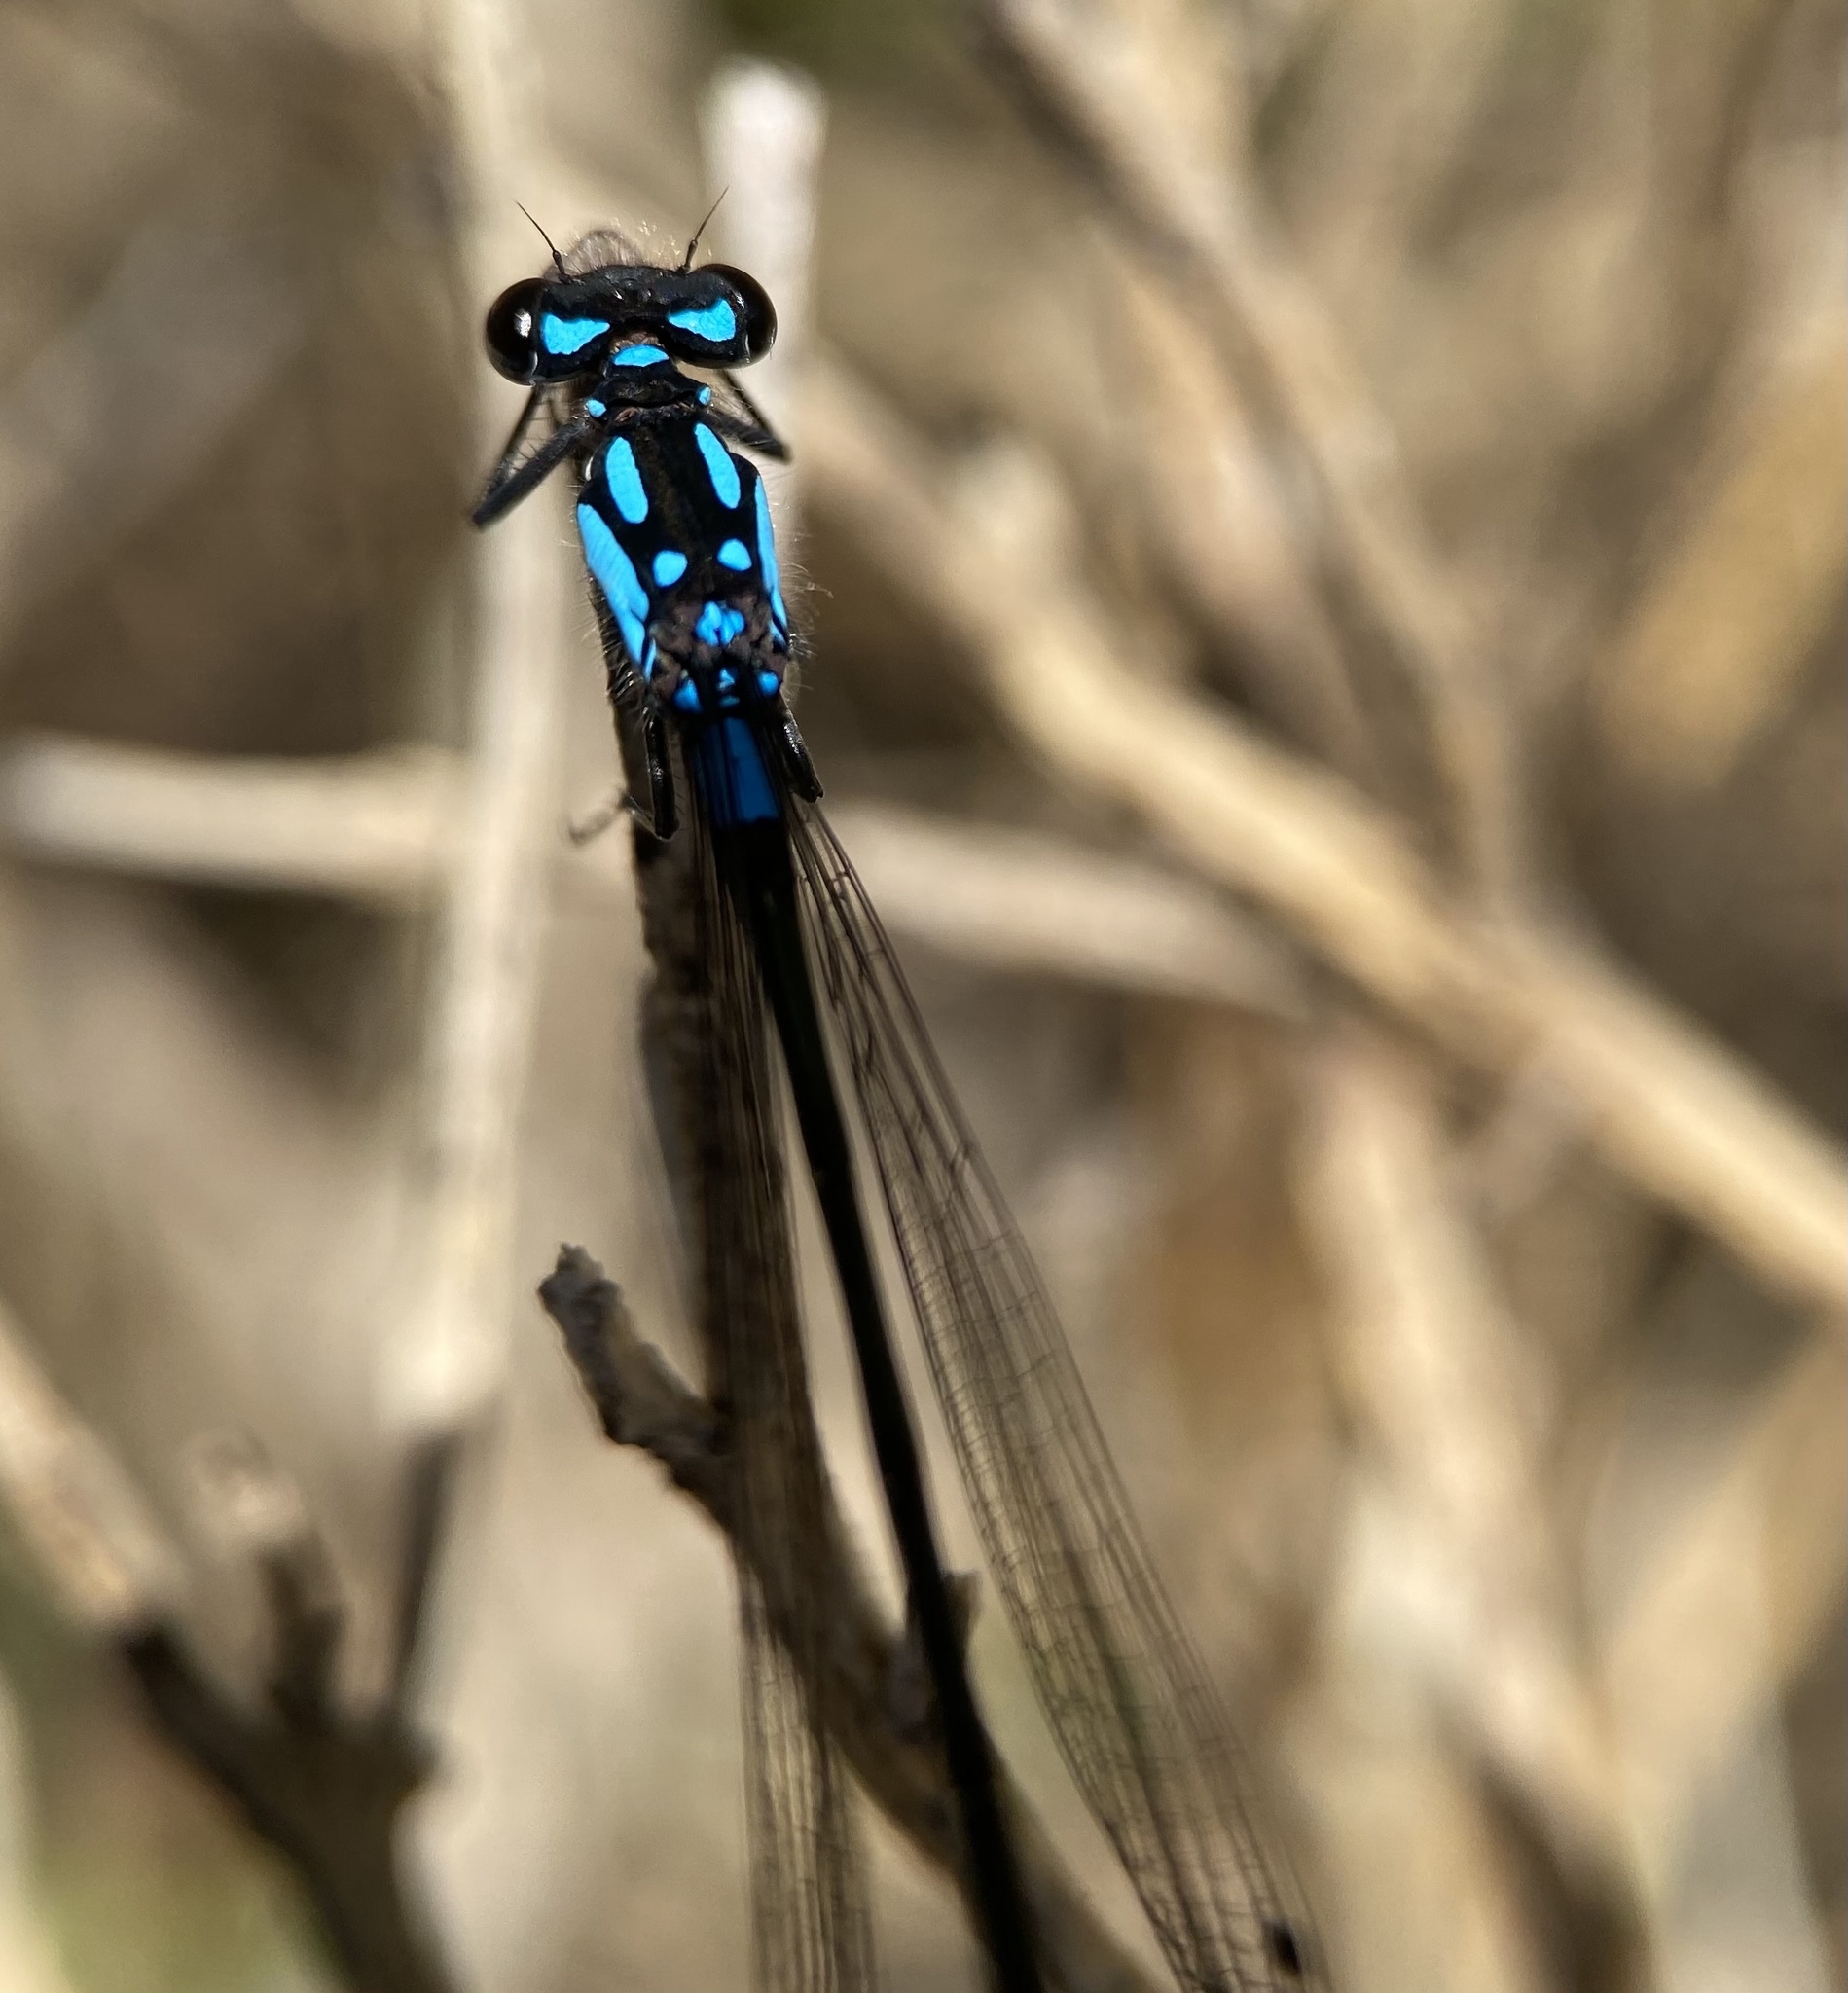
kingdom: Animalia
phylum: Arthropoda
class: Insecta
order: Odonata
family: Coenagrionidae
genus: Zoniagrion
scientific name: Zoniagrion exclamationis
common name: Exclamation damsel
